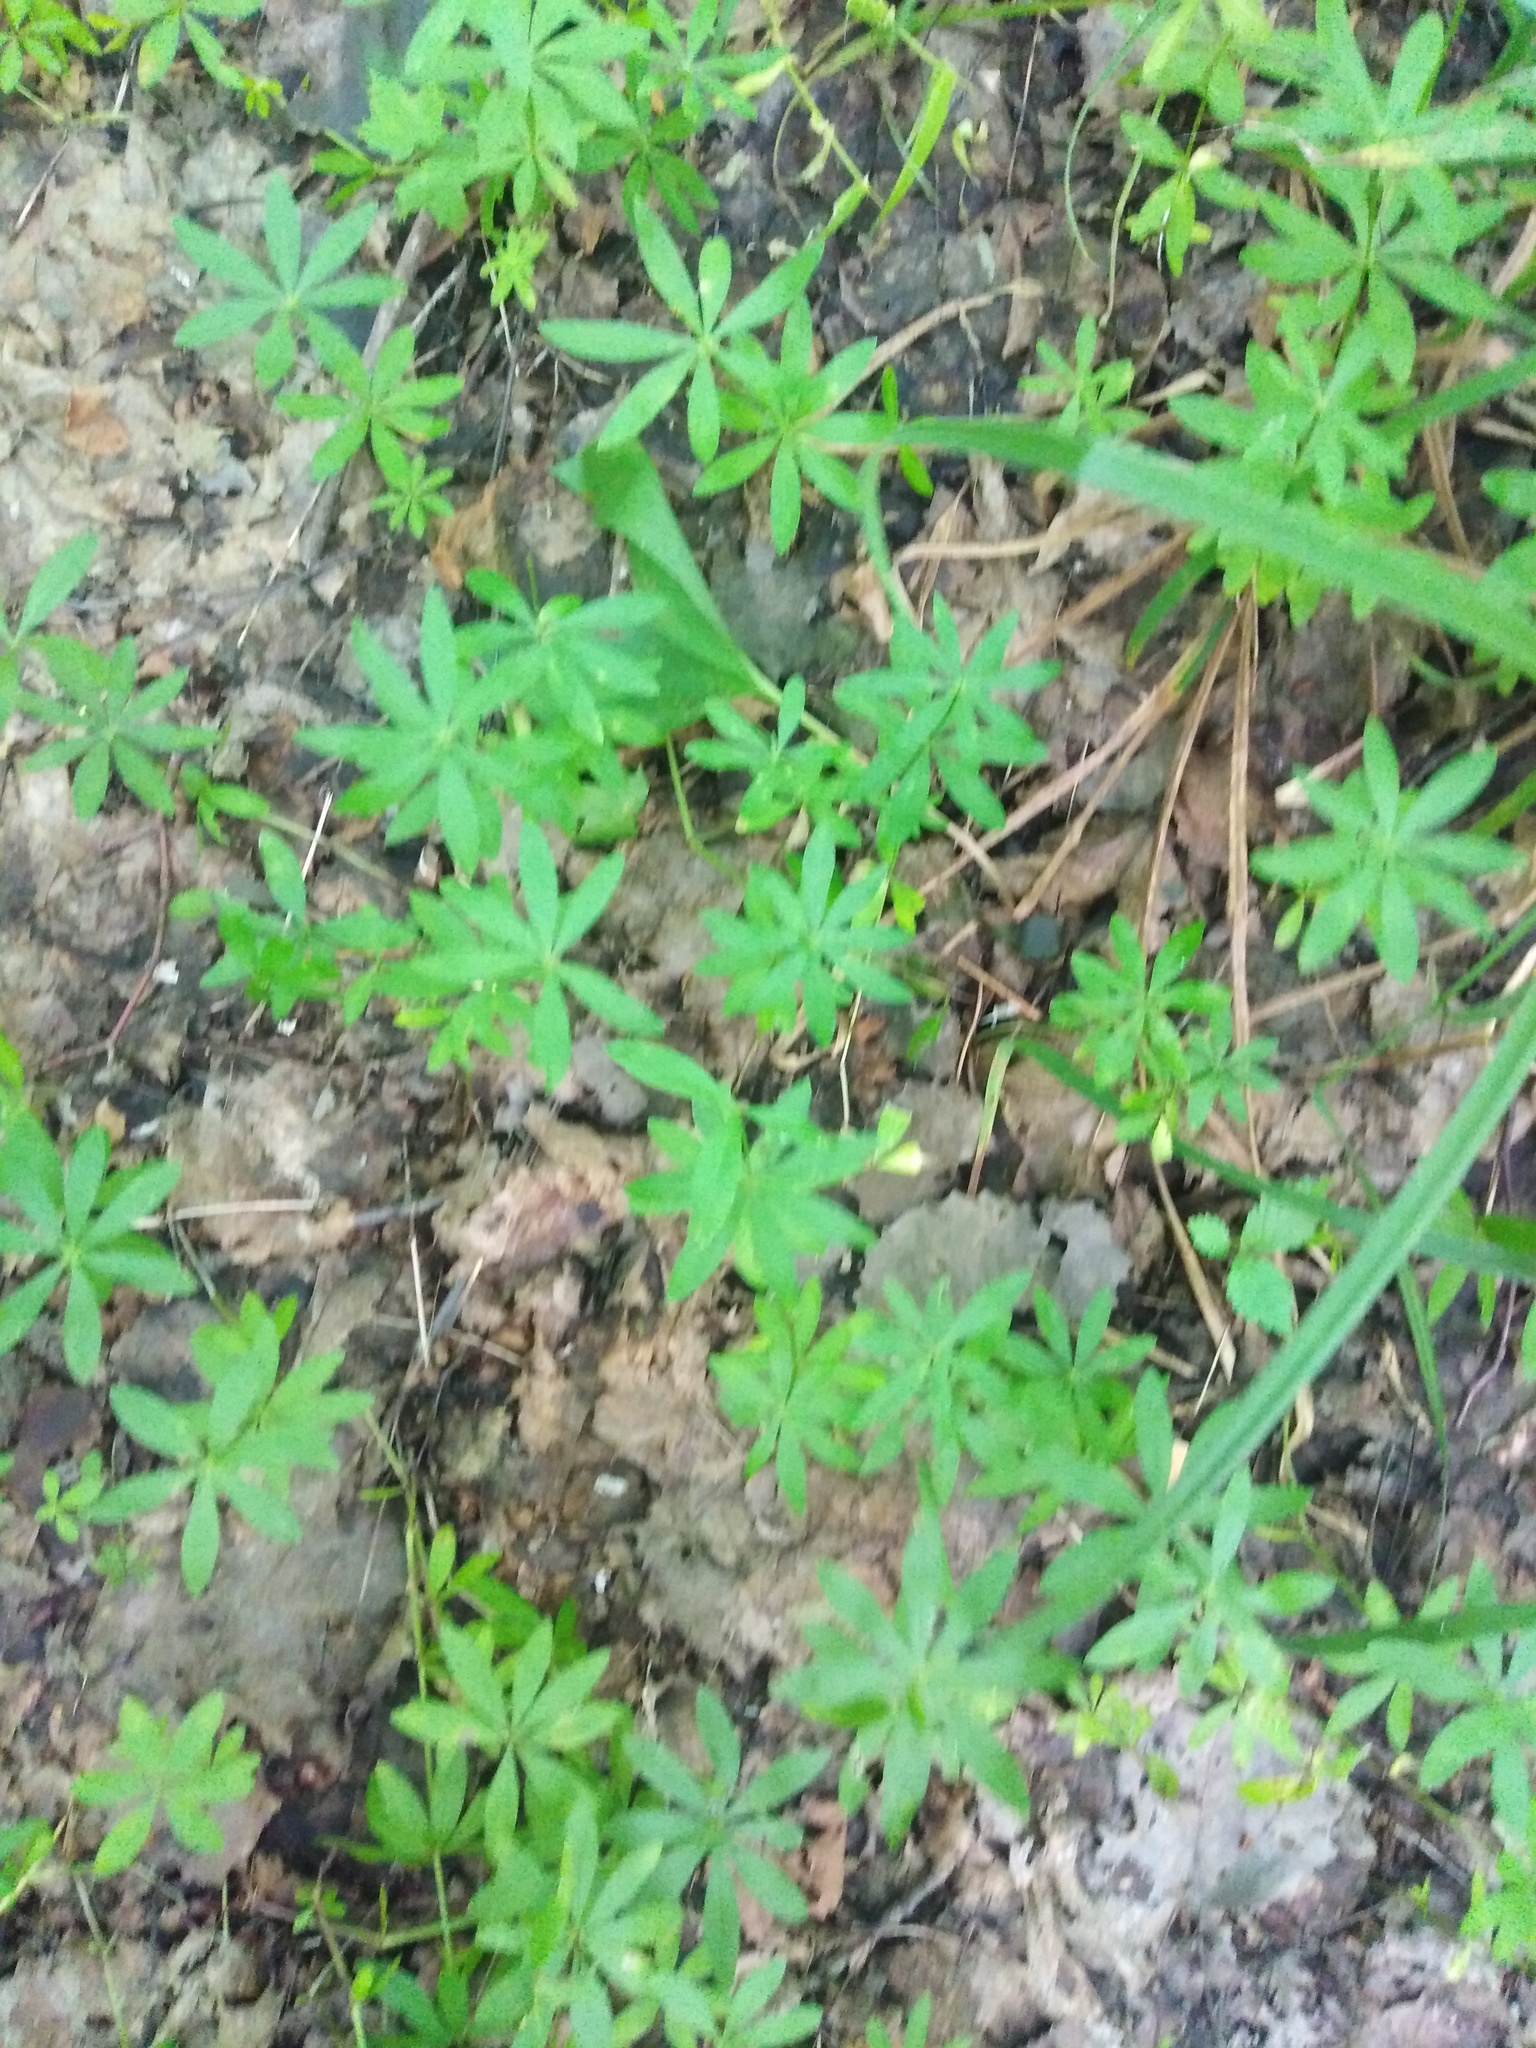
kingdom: Plantae
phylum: Tracheophyta
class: Magnoliopsida
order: Gentianales
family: Rubiaceae
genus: Galium
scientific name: Galium odoratum
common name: Sweet woodruff
